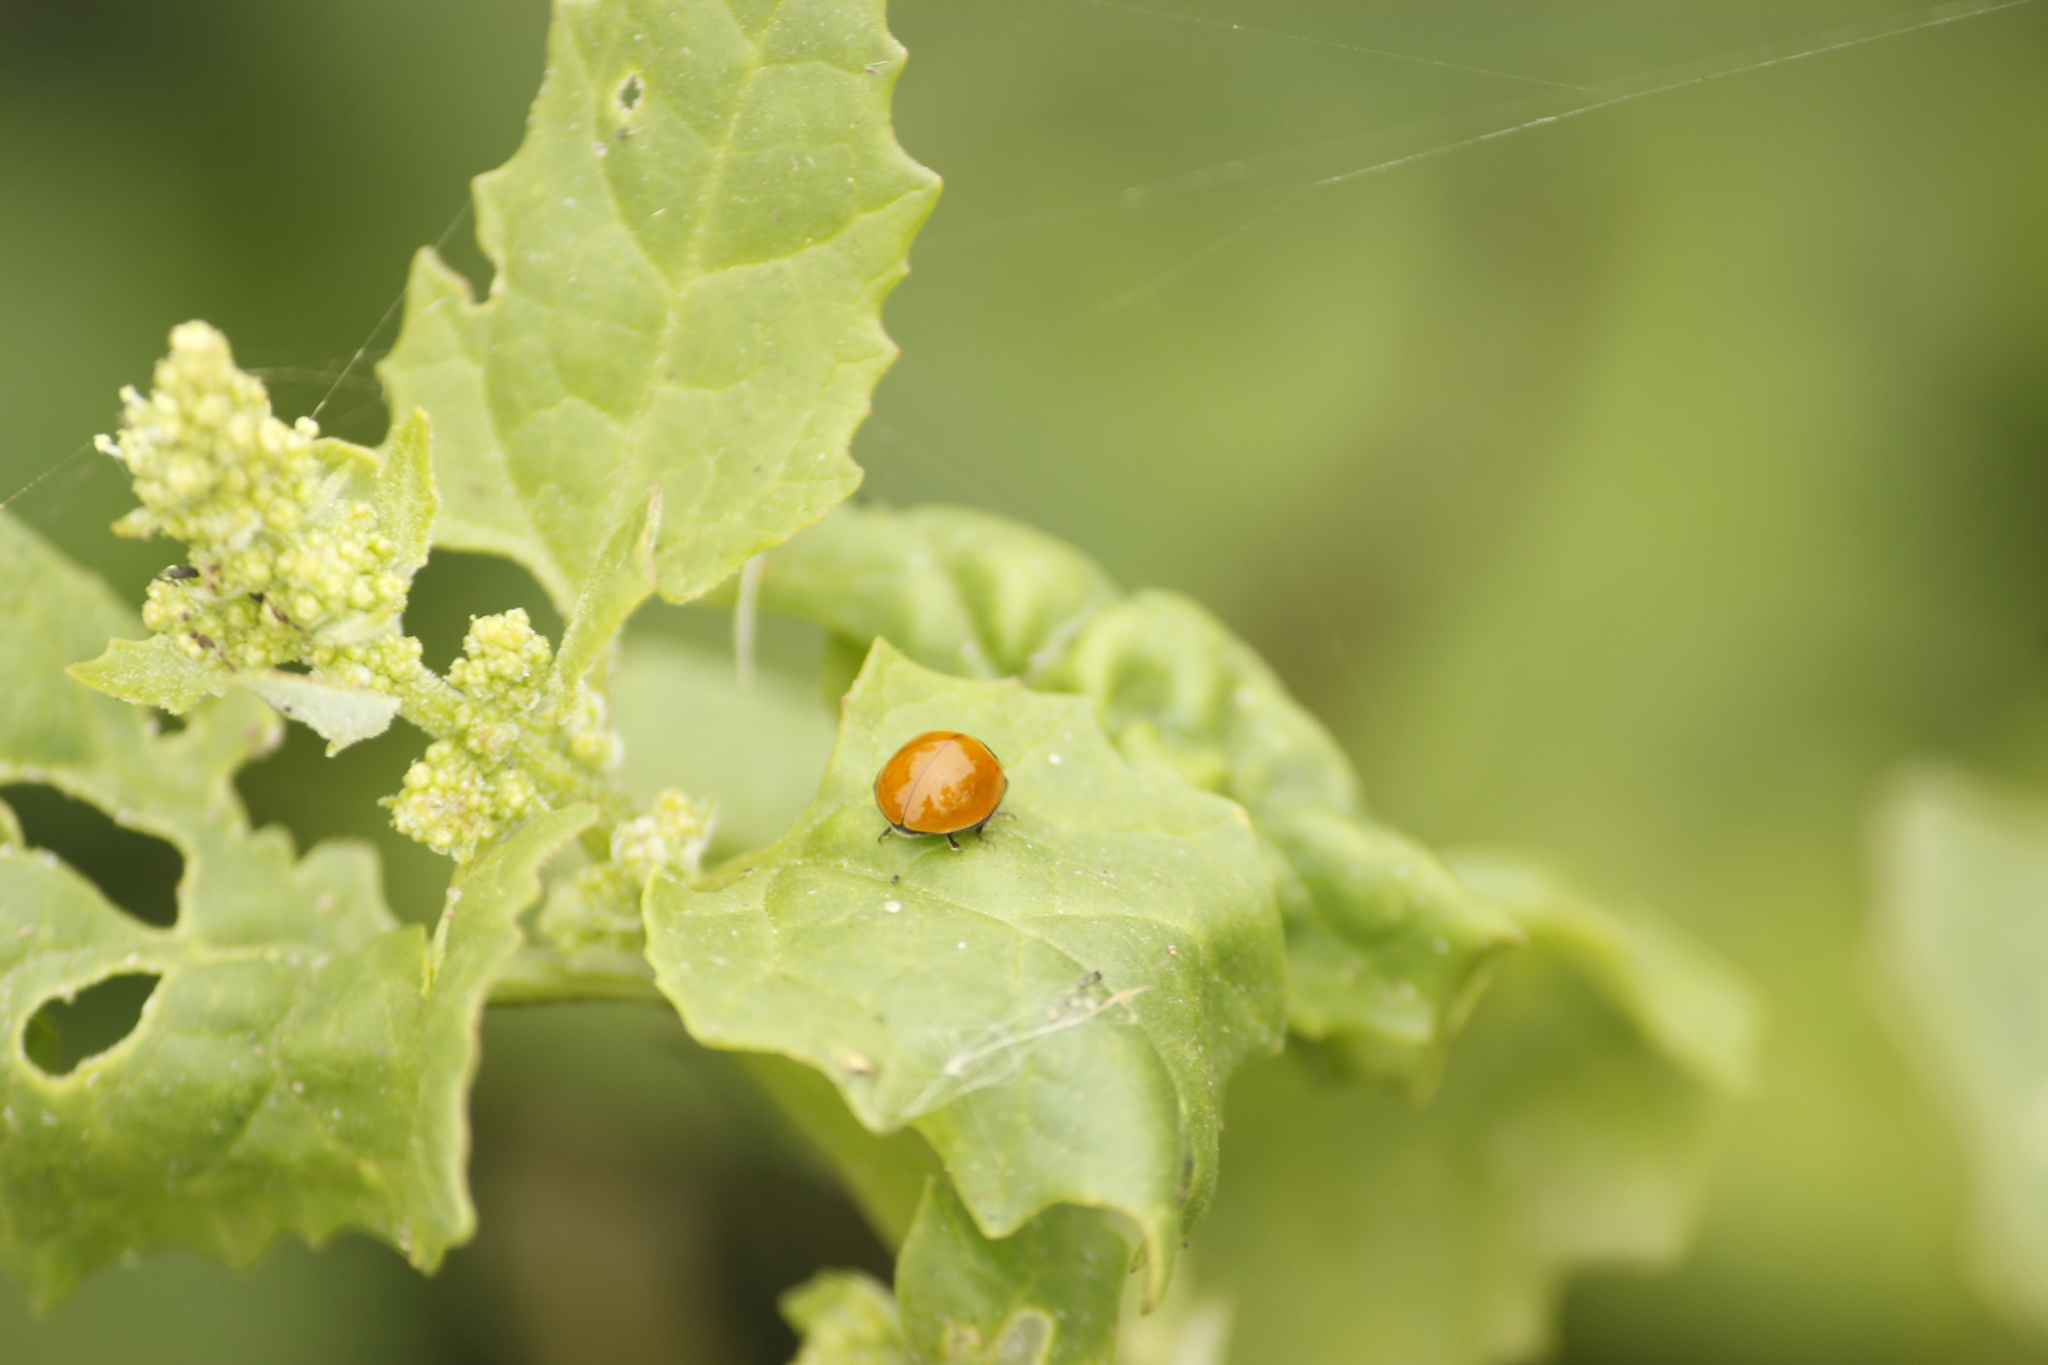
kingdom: Animalia
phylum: Arthropoda
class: Insecta
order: Coleoptera
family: Coccinellidae
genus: Cycloneda
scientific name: Cycloneda sanguinea
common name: Ladybird beetle
